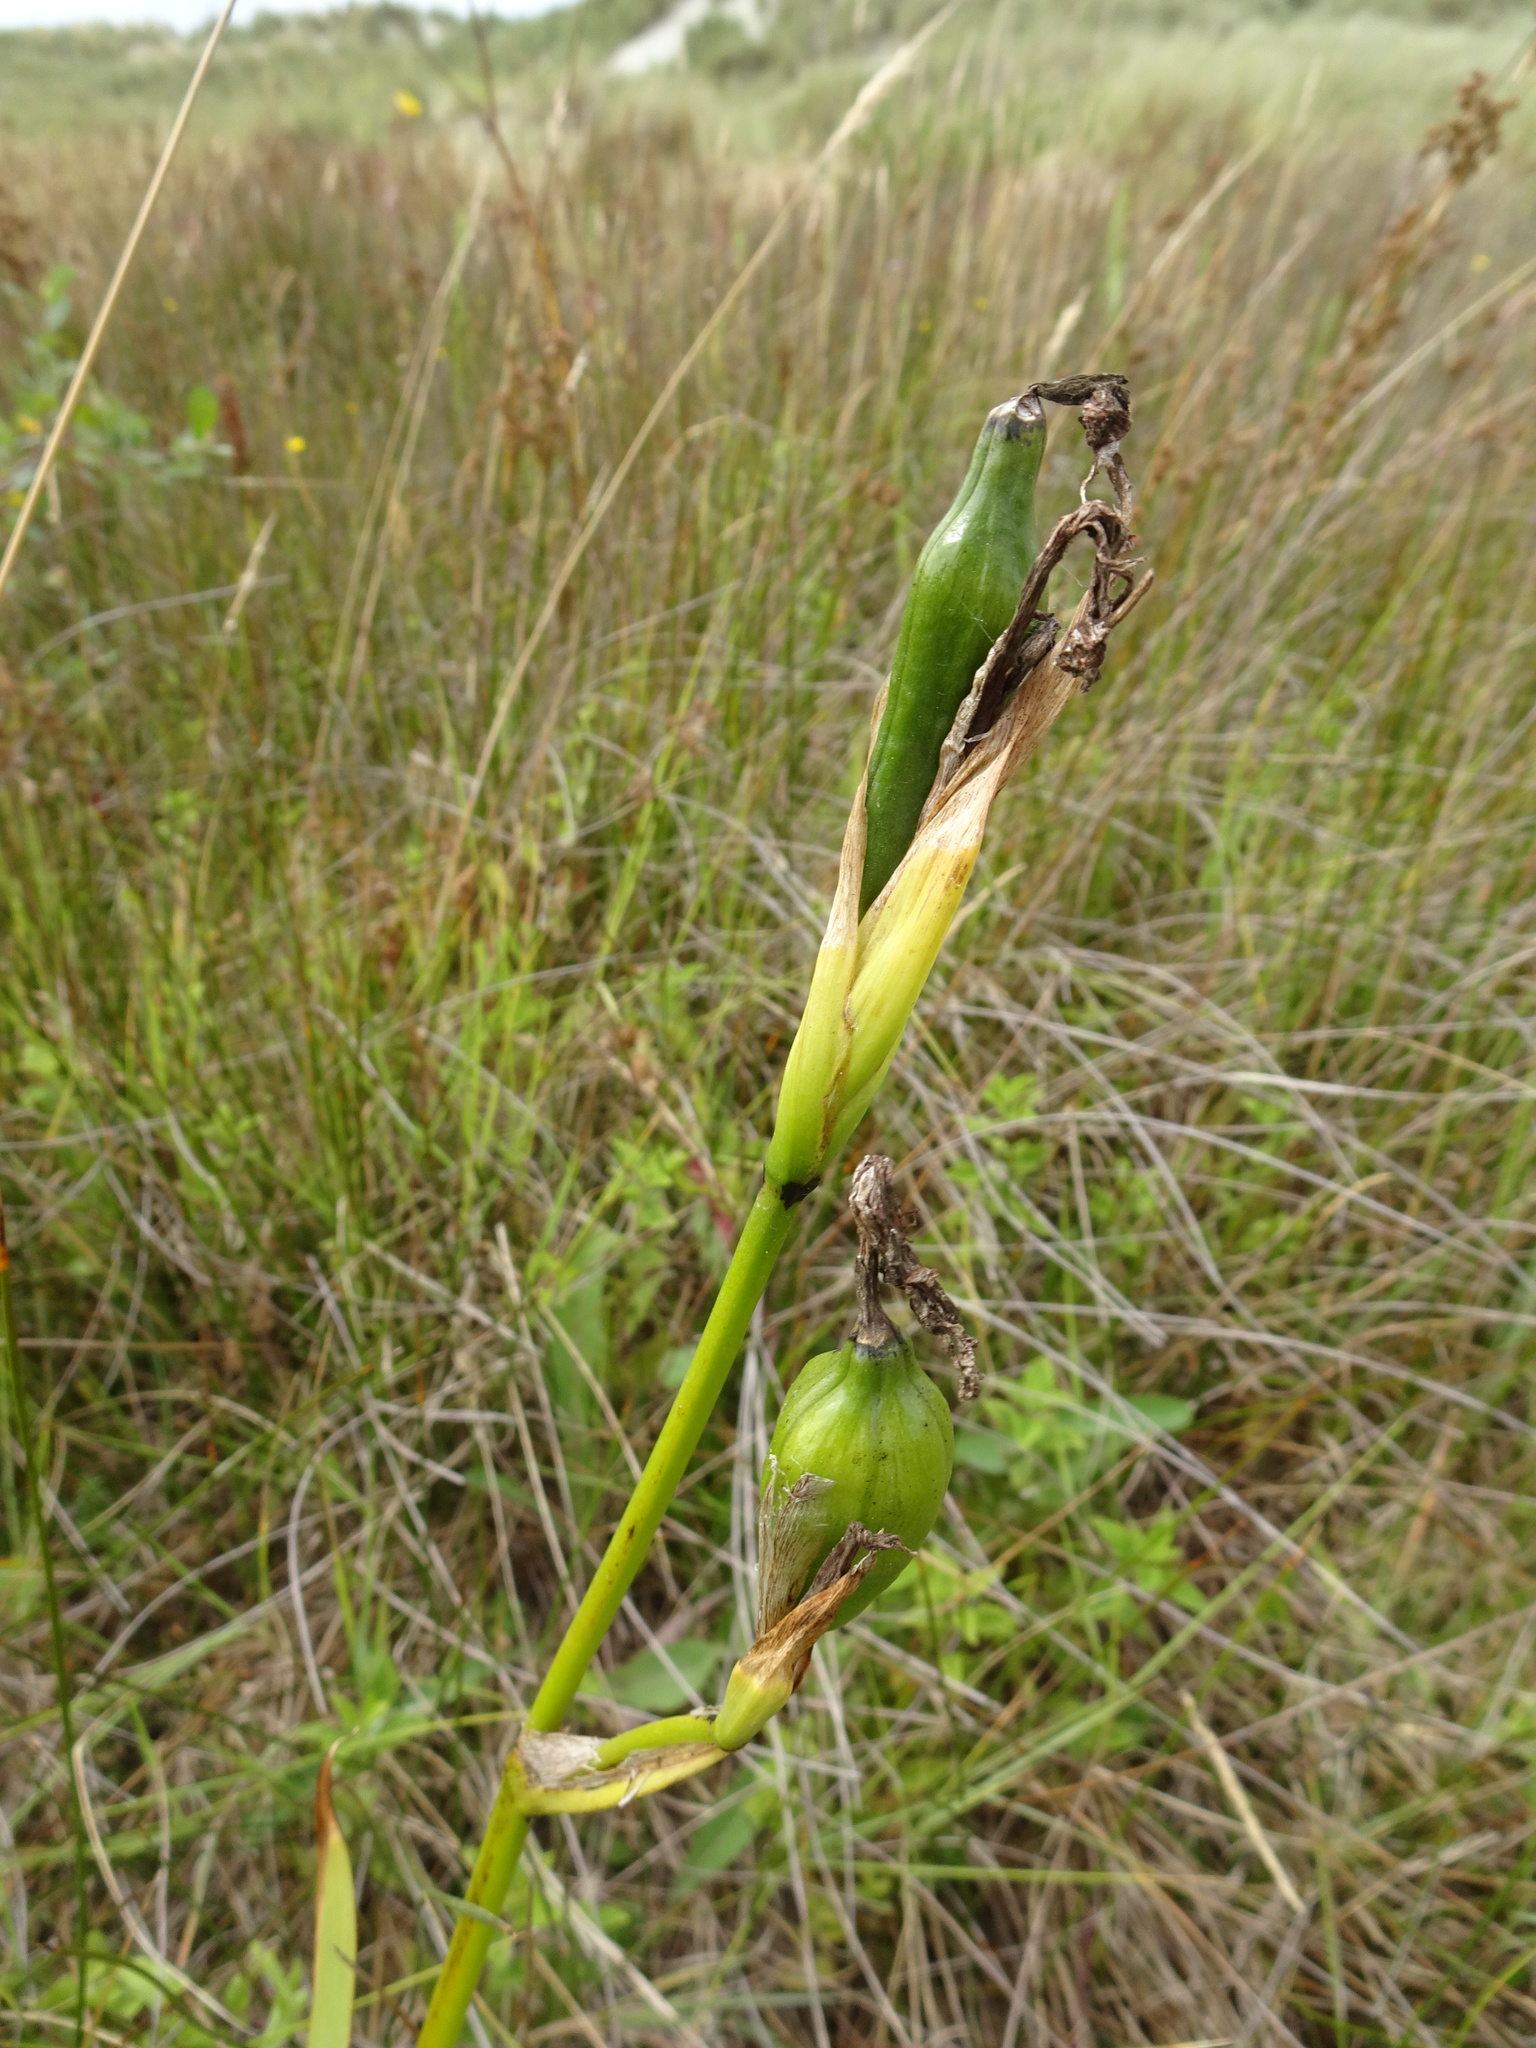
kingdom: Plantae
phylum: Tracheophyta
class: Liliopsida
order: Asparagales
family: Iridaceae
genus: Iris
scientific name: Iris pseudacorus
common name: Yellow flag
